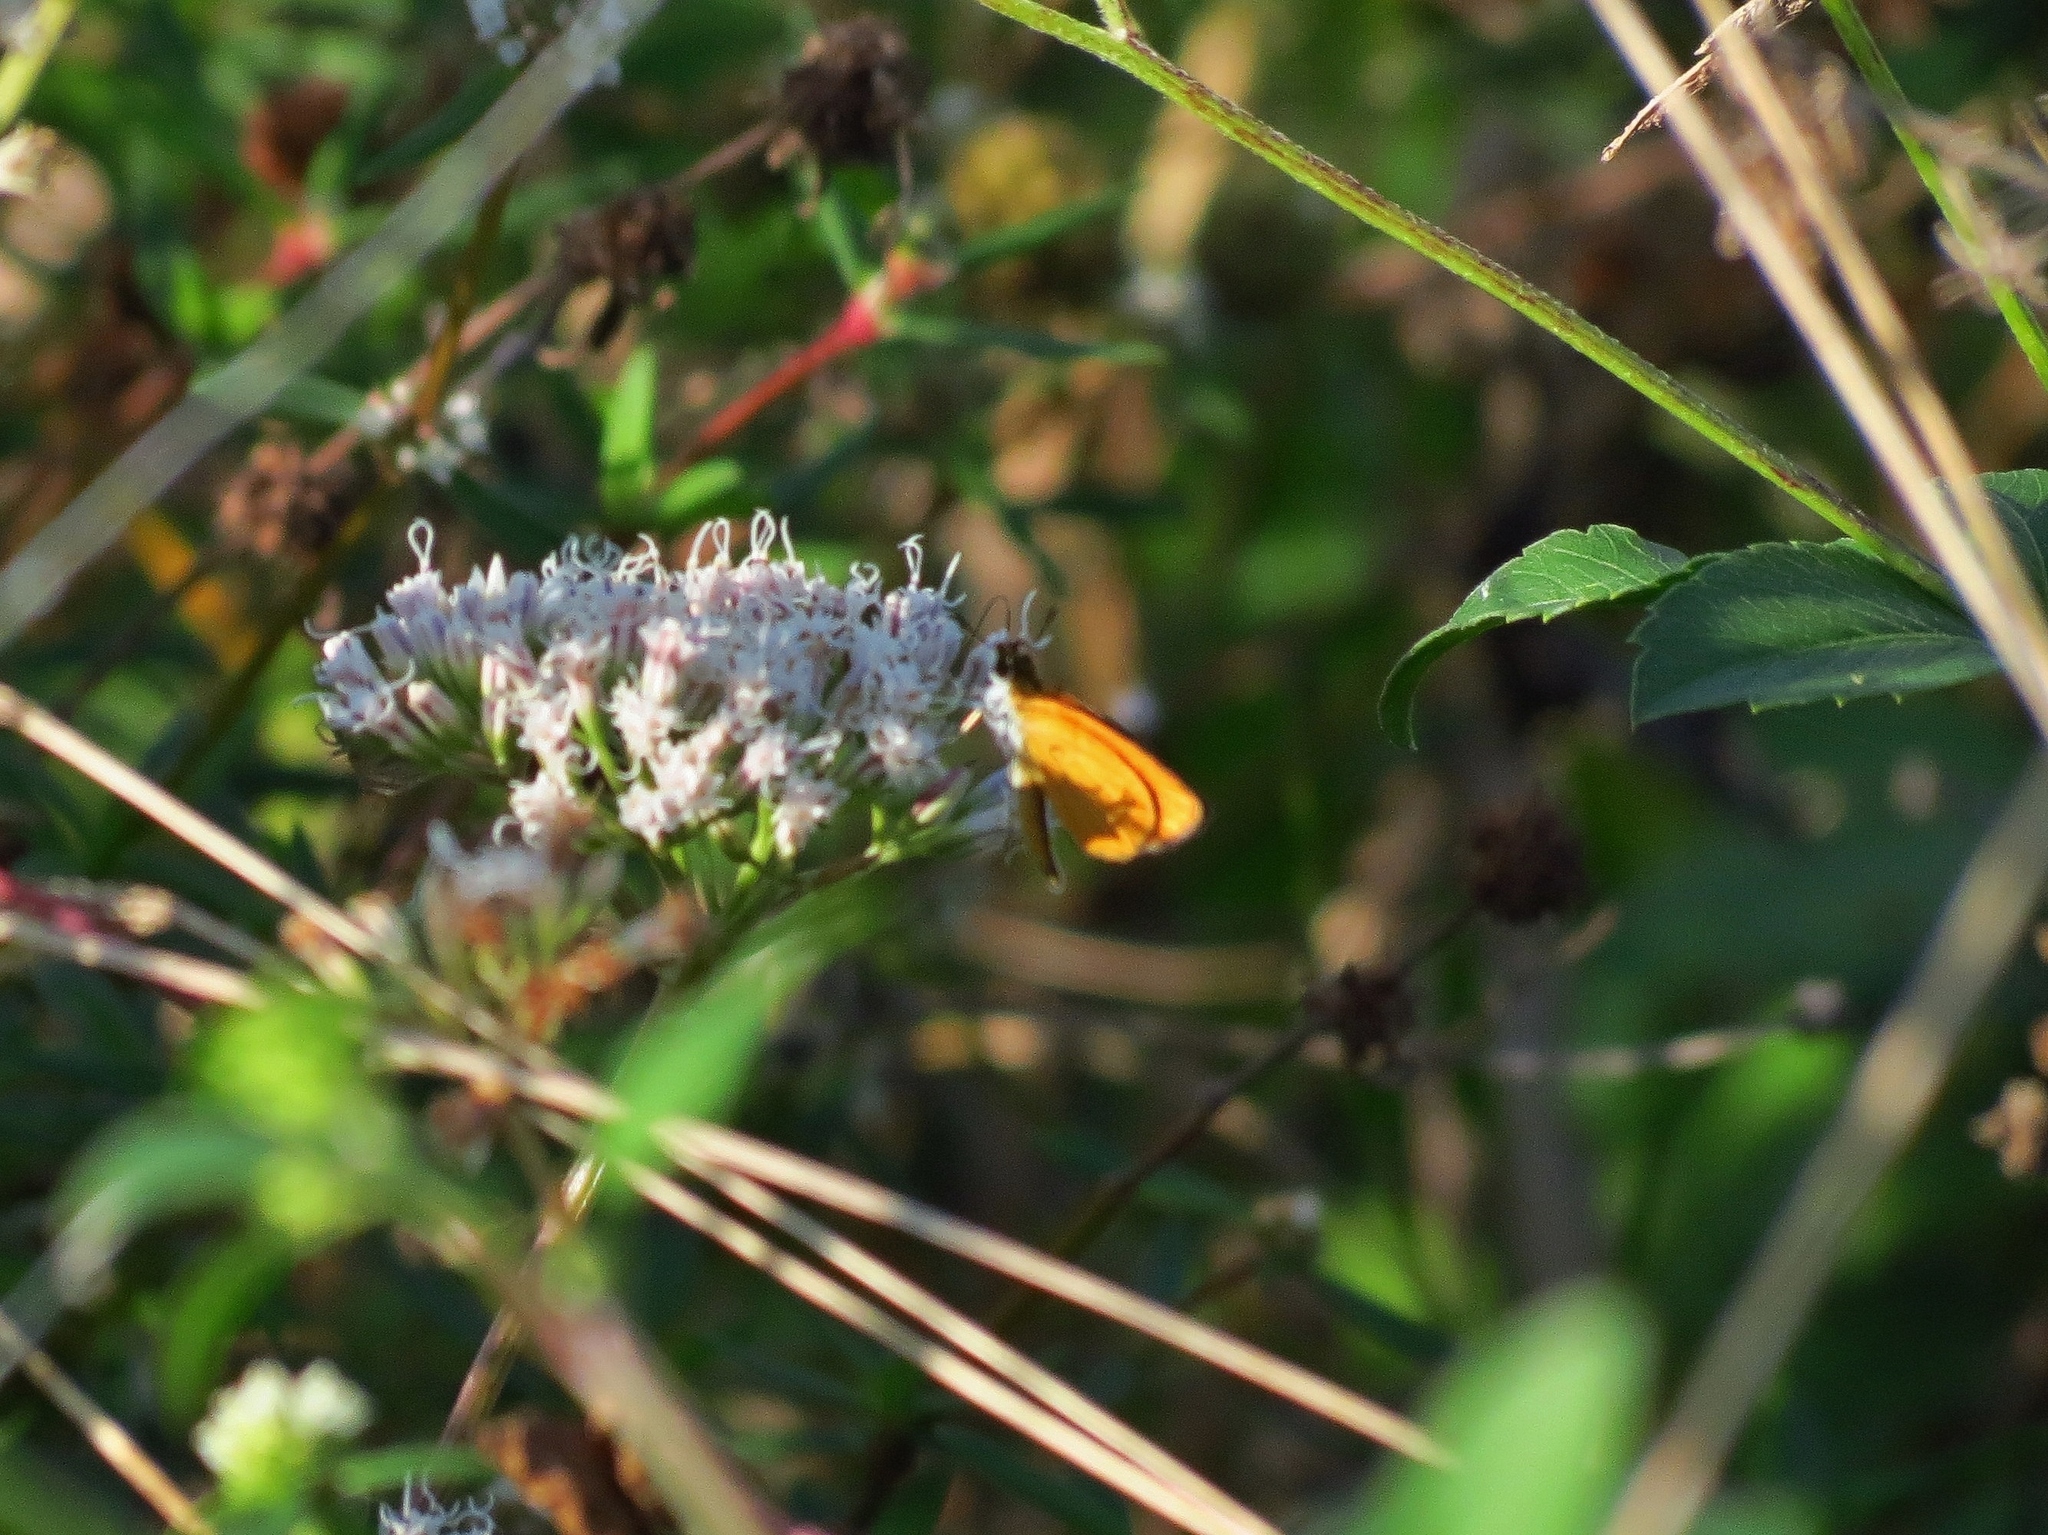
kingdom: Animalia
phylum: Arthropoda
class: Insecta
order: Lepidoptera
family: Hesperiidae
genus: Ancyloxypha
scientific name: Ancyloxypha numitor
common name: Least skipper
